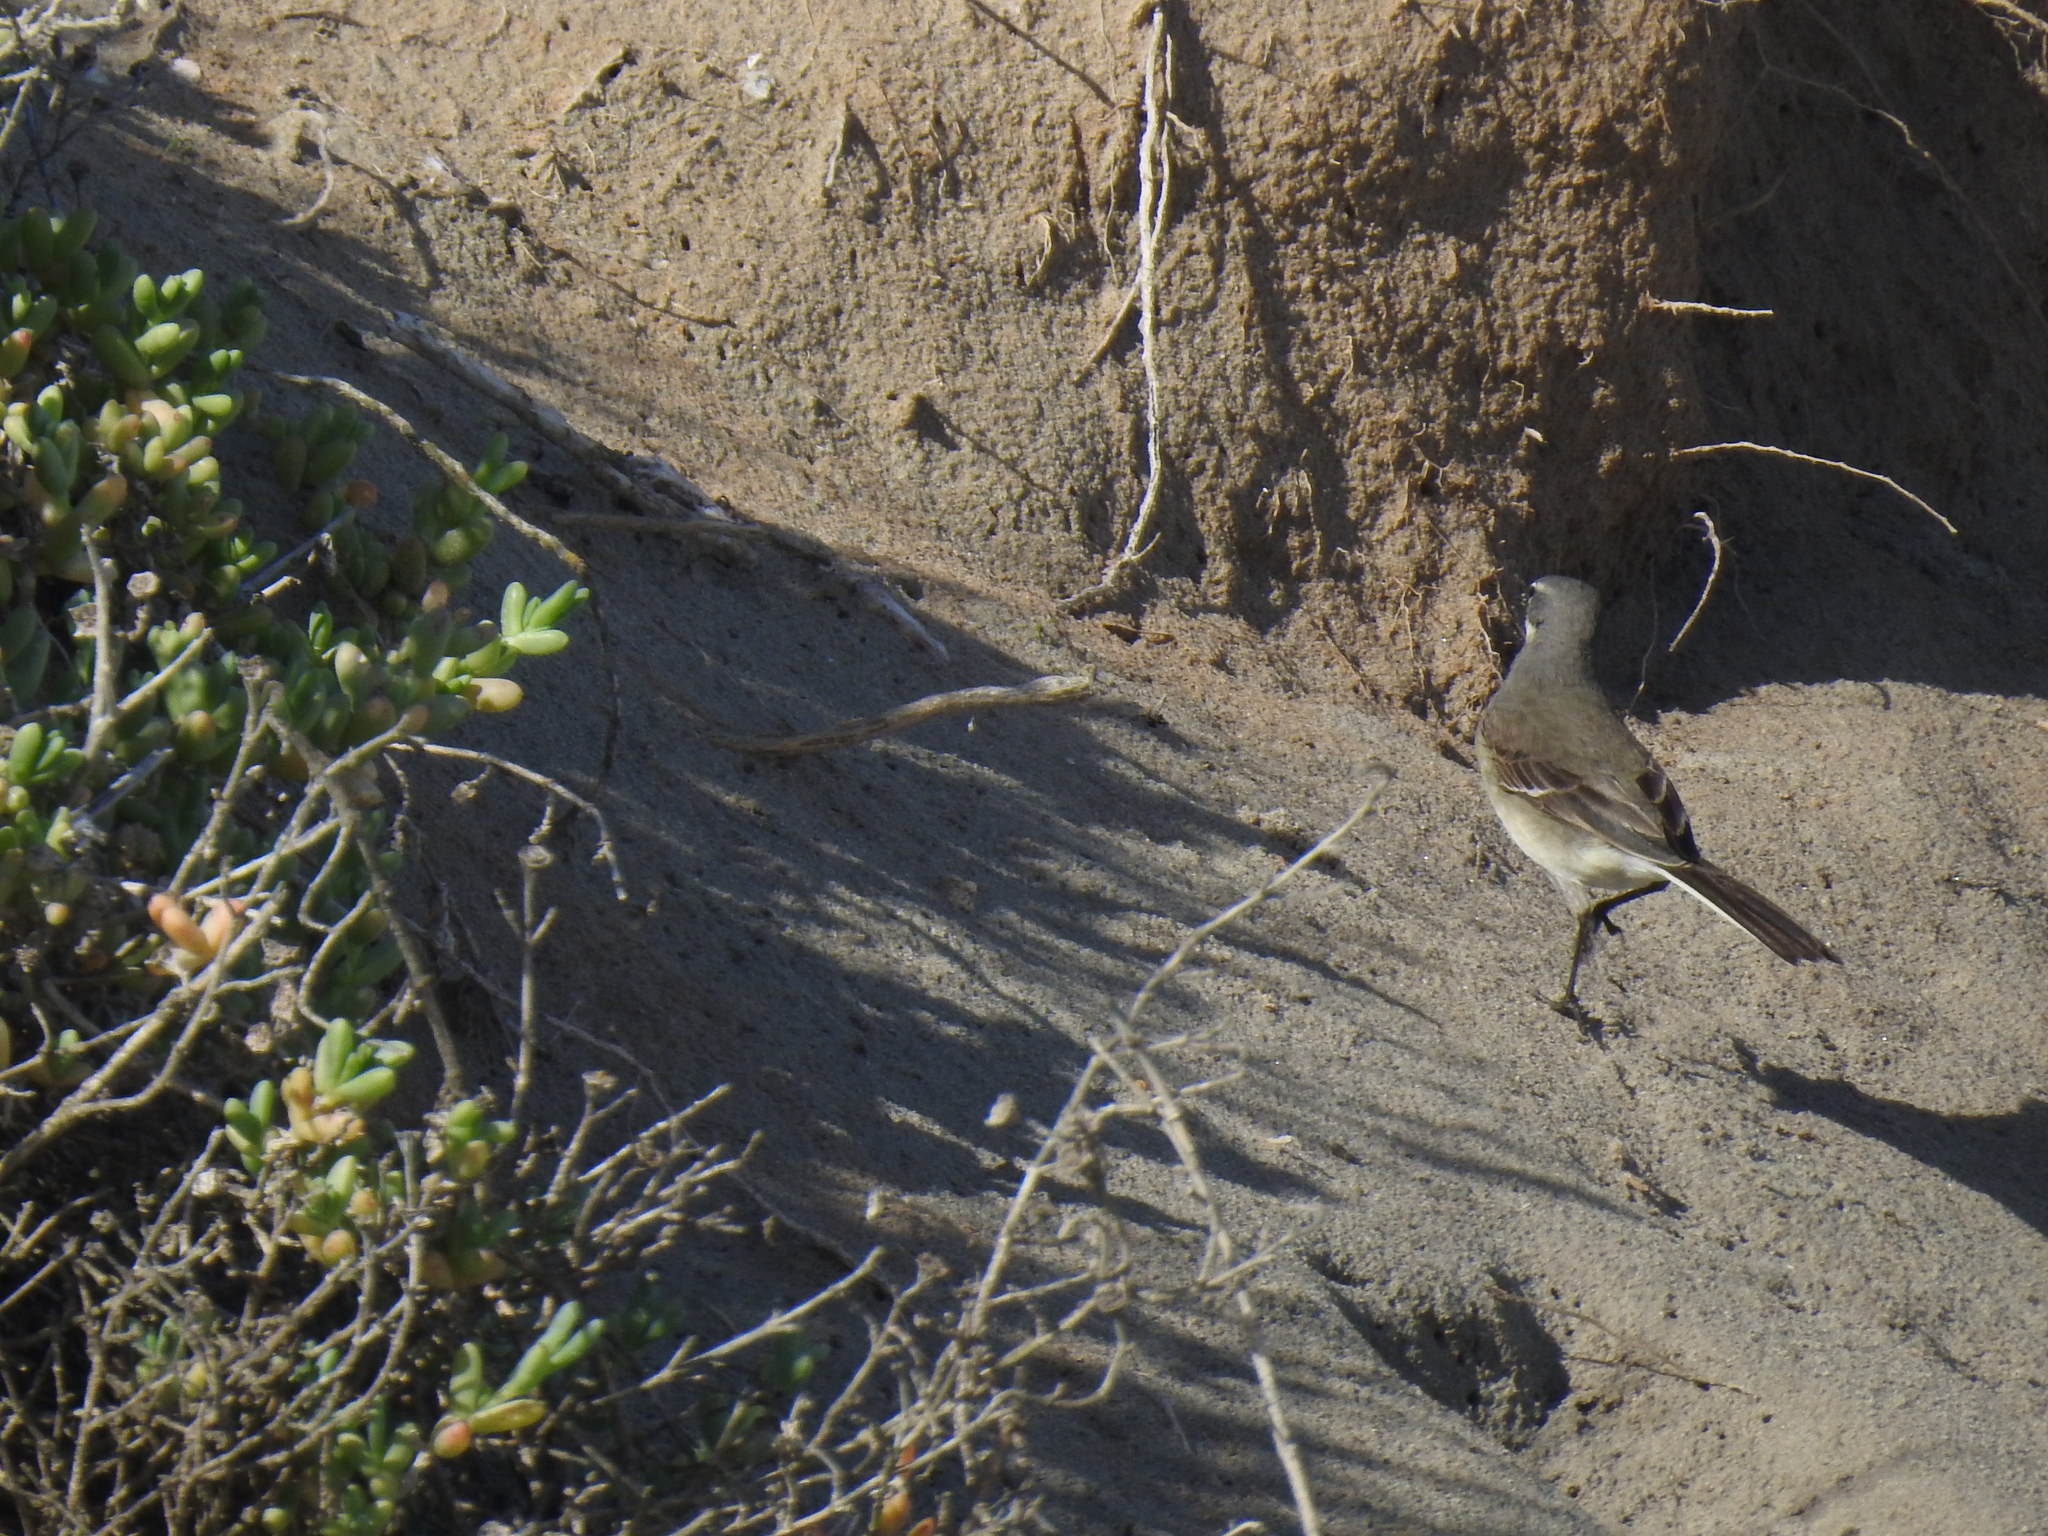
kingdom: Animalia
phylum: Chordata
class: Aves
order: Passeriformes
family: Motacillidae
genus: Motacilla
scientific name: Motacilla capensis
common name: Cape wagtail
